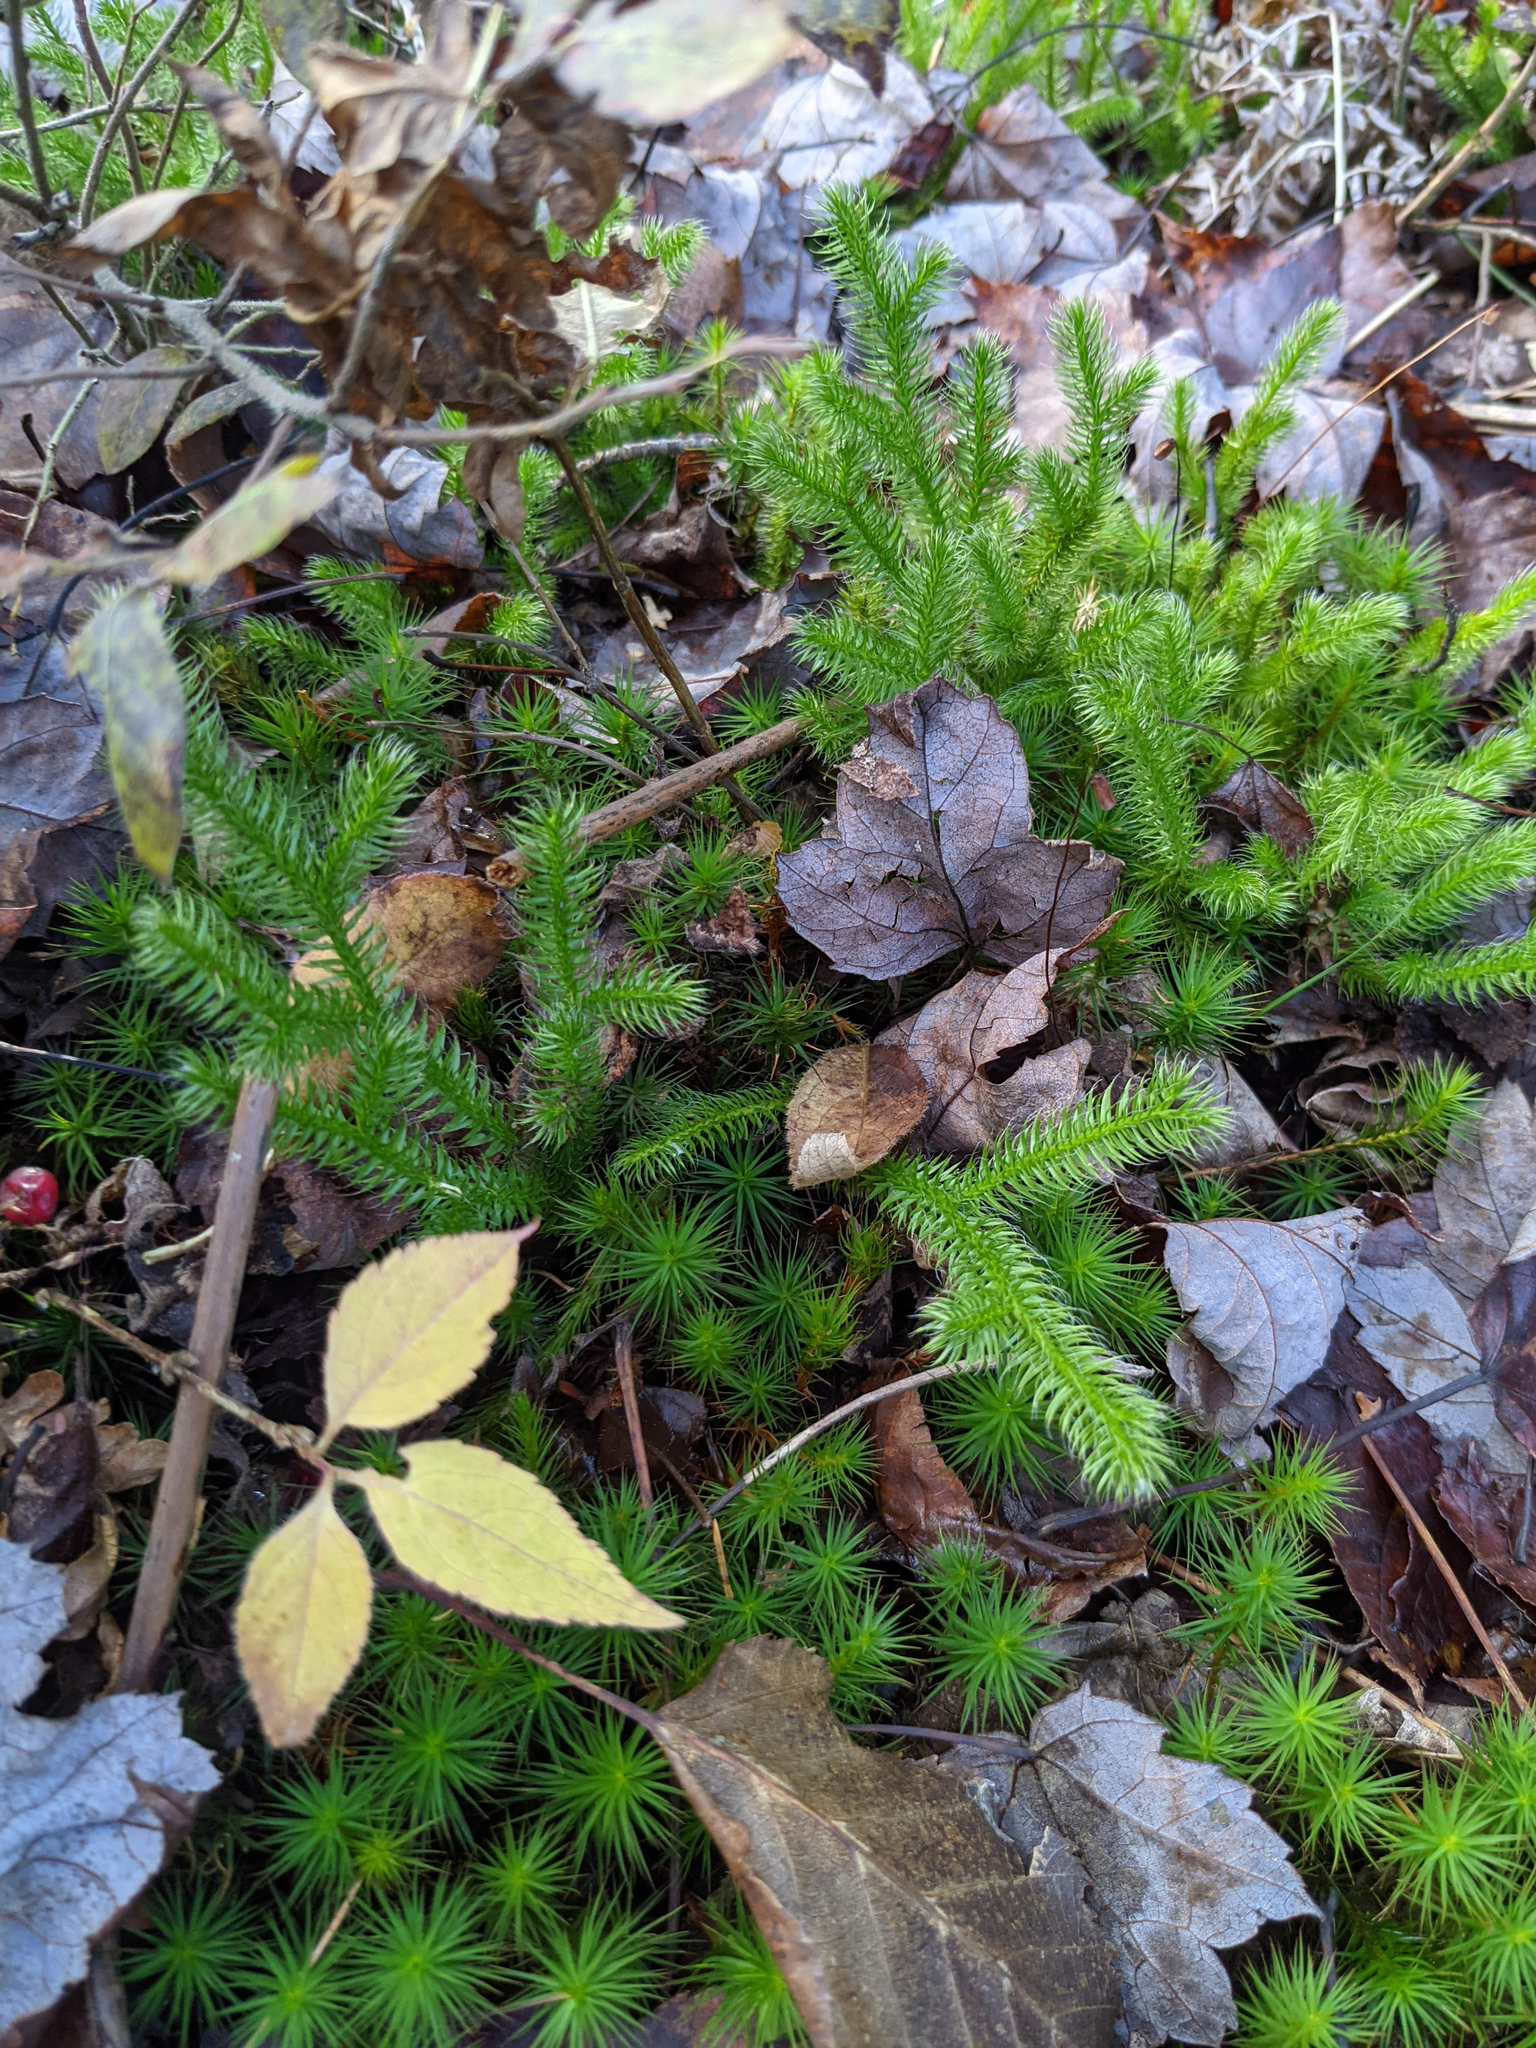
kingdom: Plantae
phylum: Tracheophyta
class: Lycopodiopsida
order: Lycopodiales
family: Lycopodiaceae
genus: Lycopodium
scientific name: Lycopodium clavatum
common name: Stag's-horn clubmoss
